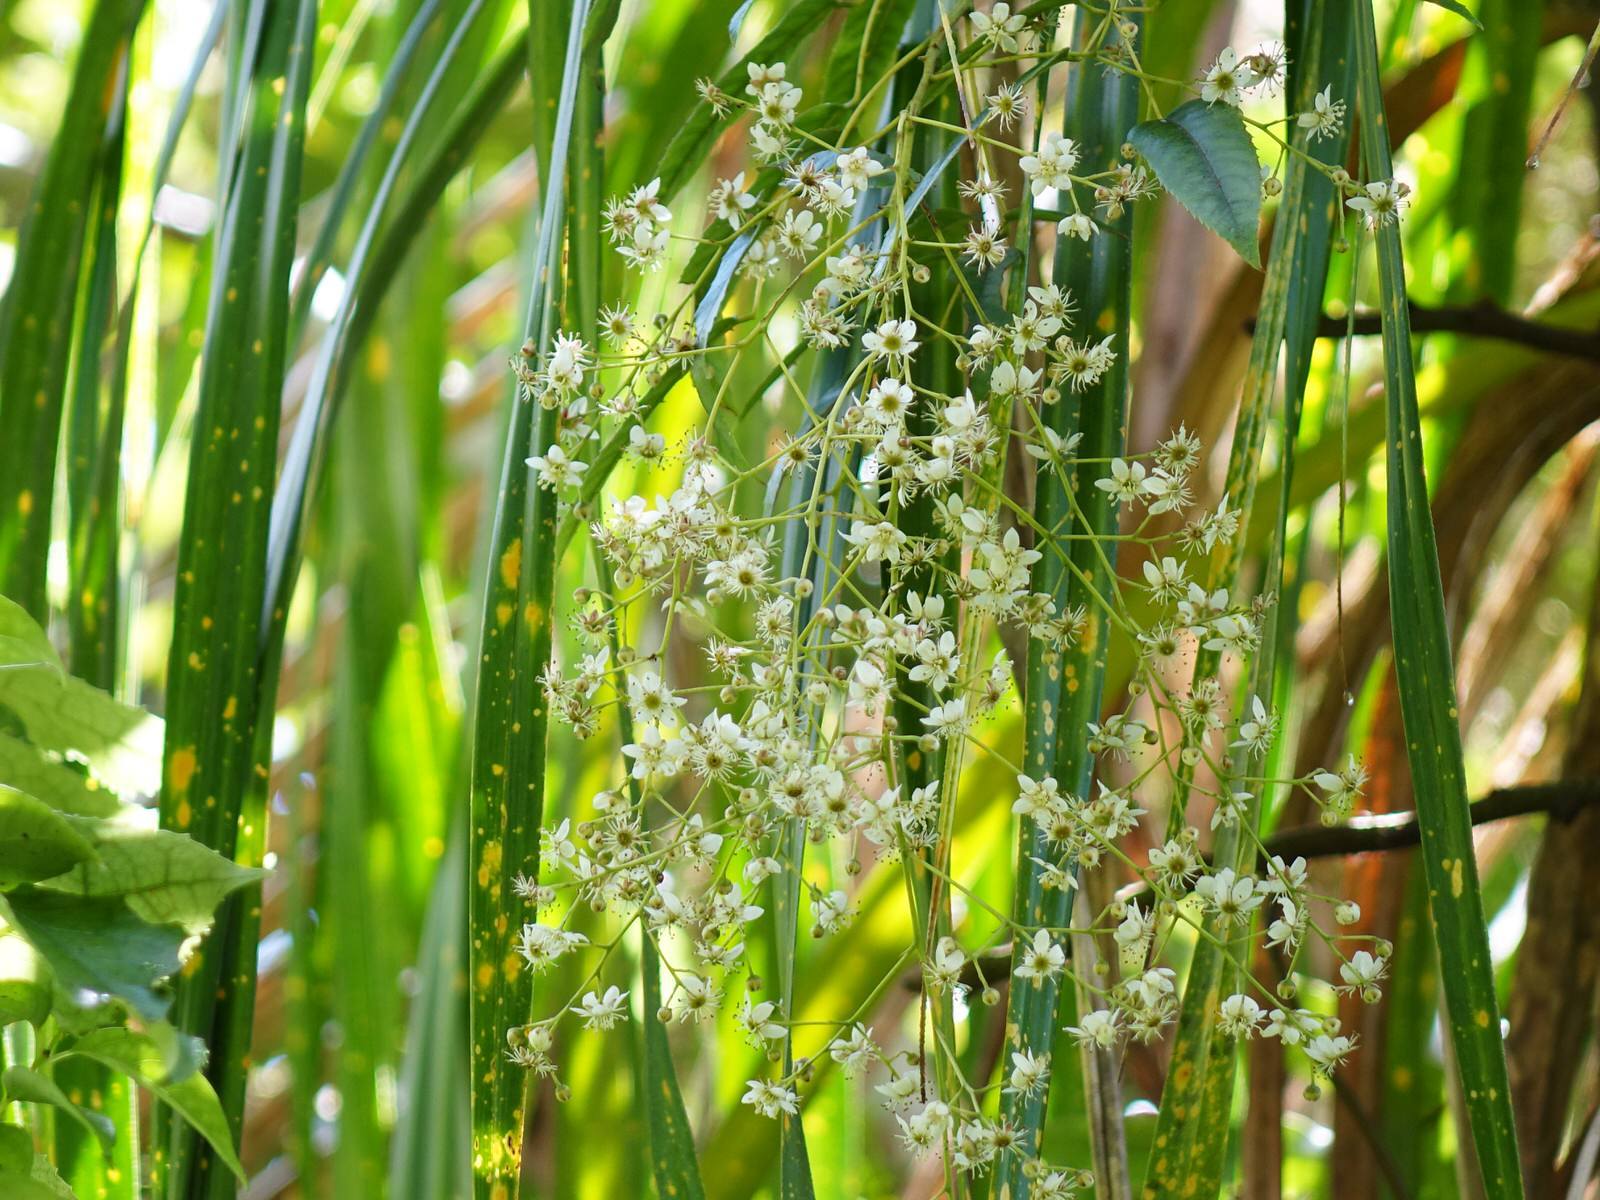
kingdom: Plantae
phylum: Tracheophyta
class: Magnoliopsida
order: Rosales
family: Rosaceae
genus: Rubus
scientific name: Rubus cissoides
